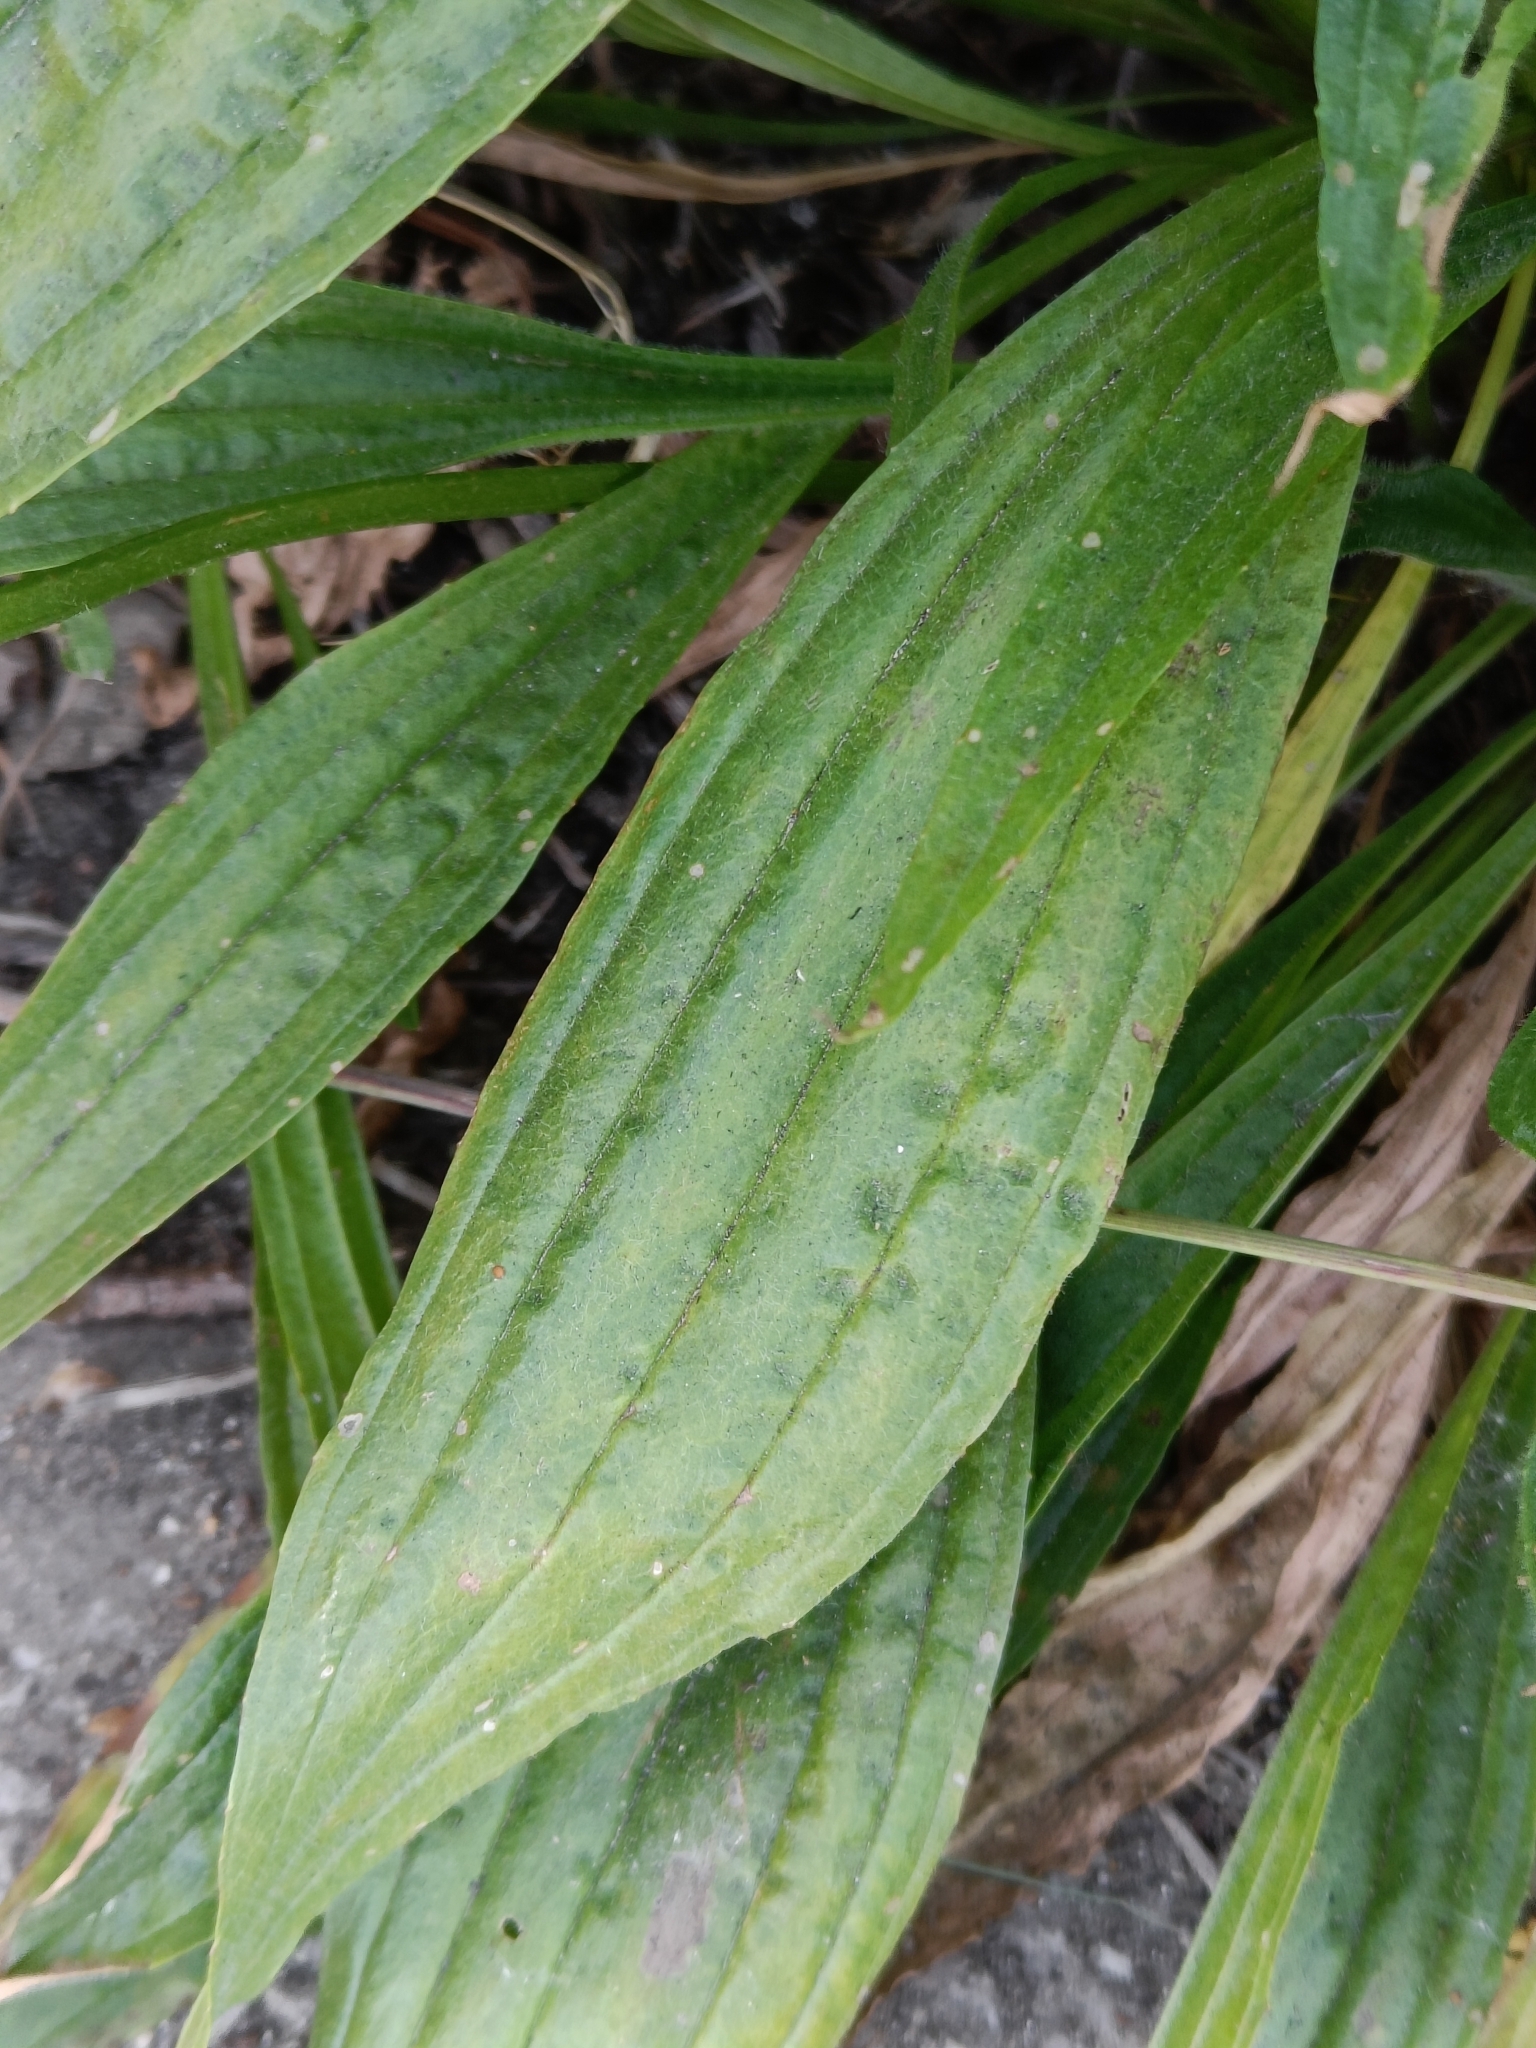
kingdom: Plantae
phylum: Tracheophyta
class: Magnoliopsida
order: Lamiales
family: Plantaginaceae
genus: Plantago
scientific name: Plantago lanceolata
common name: Ribwort plantain
